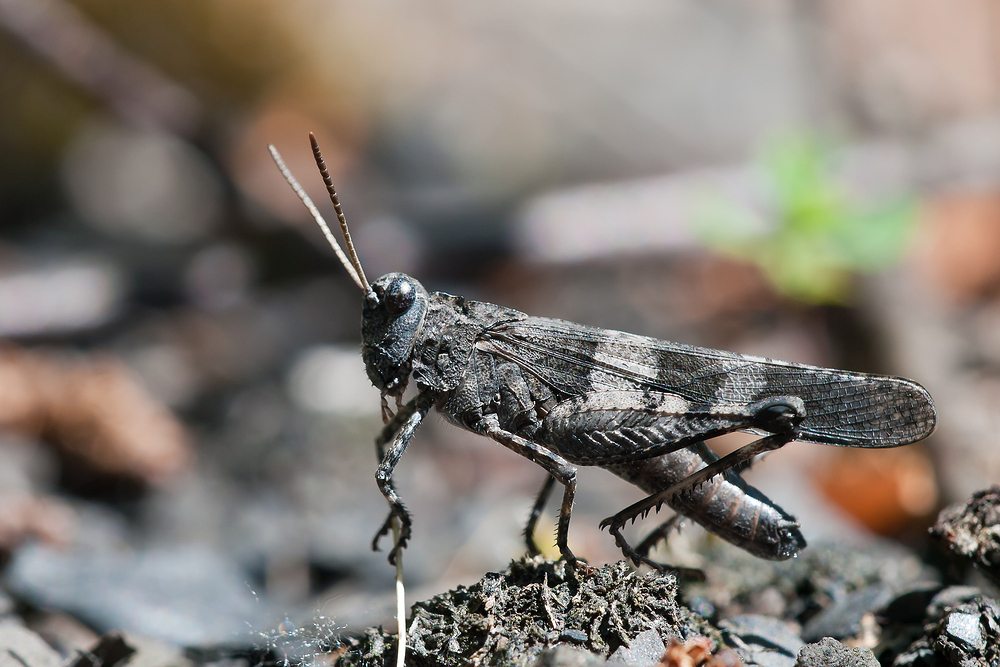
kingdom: Animalia
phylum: Arthropoda
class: Insecta
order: Orthoptera
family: Acrididae
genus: Oedipoda
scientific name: Oedipoda caerulescens
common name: Blue-winged grasshopper
